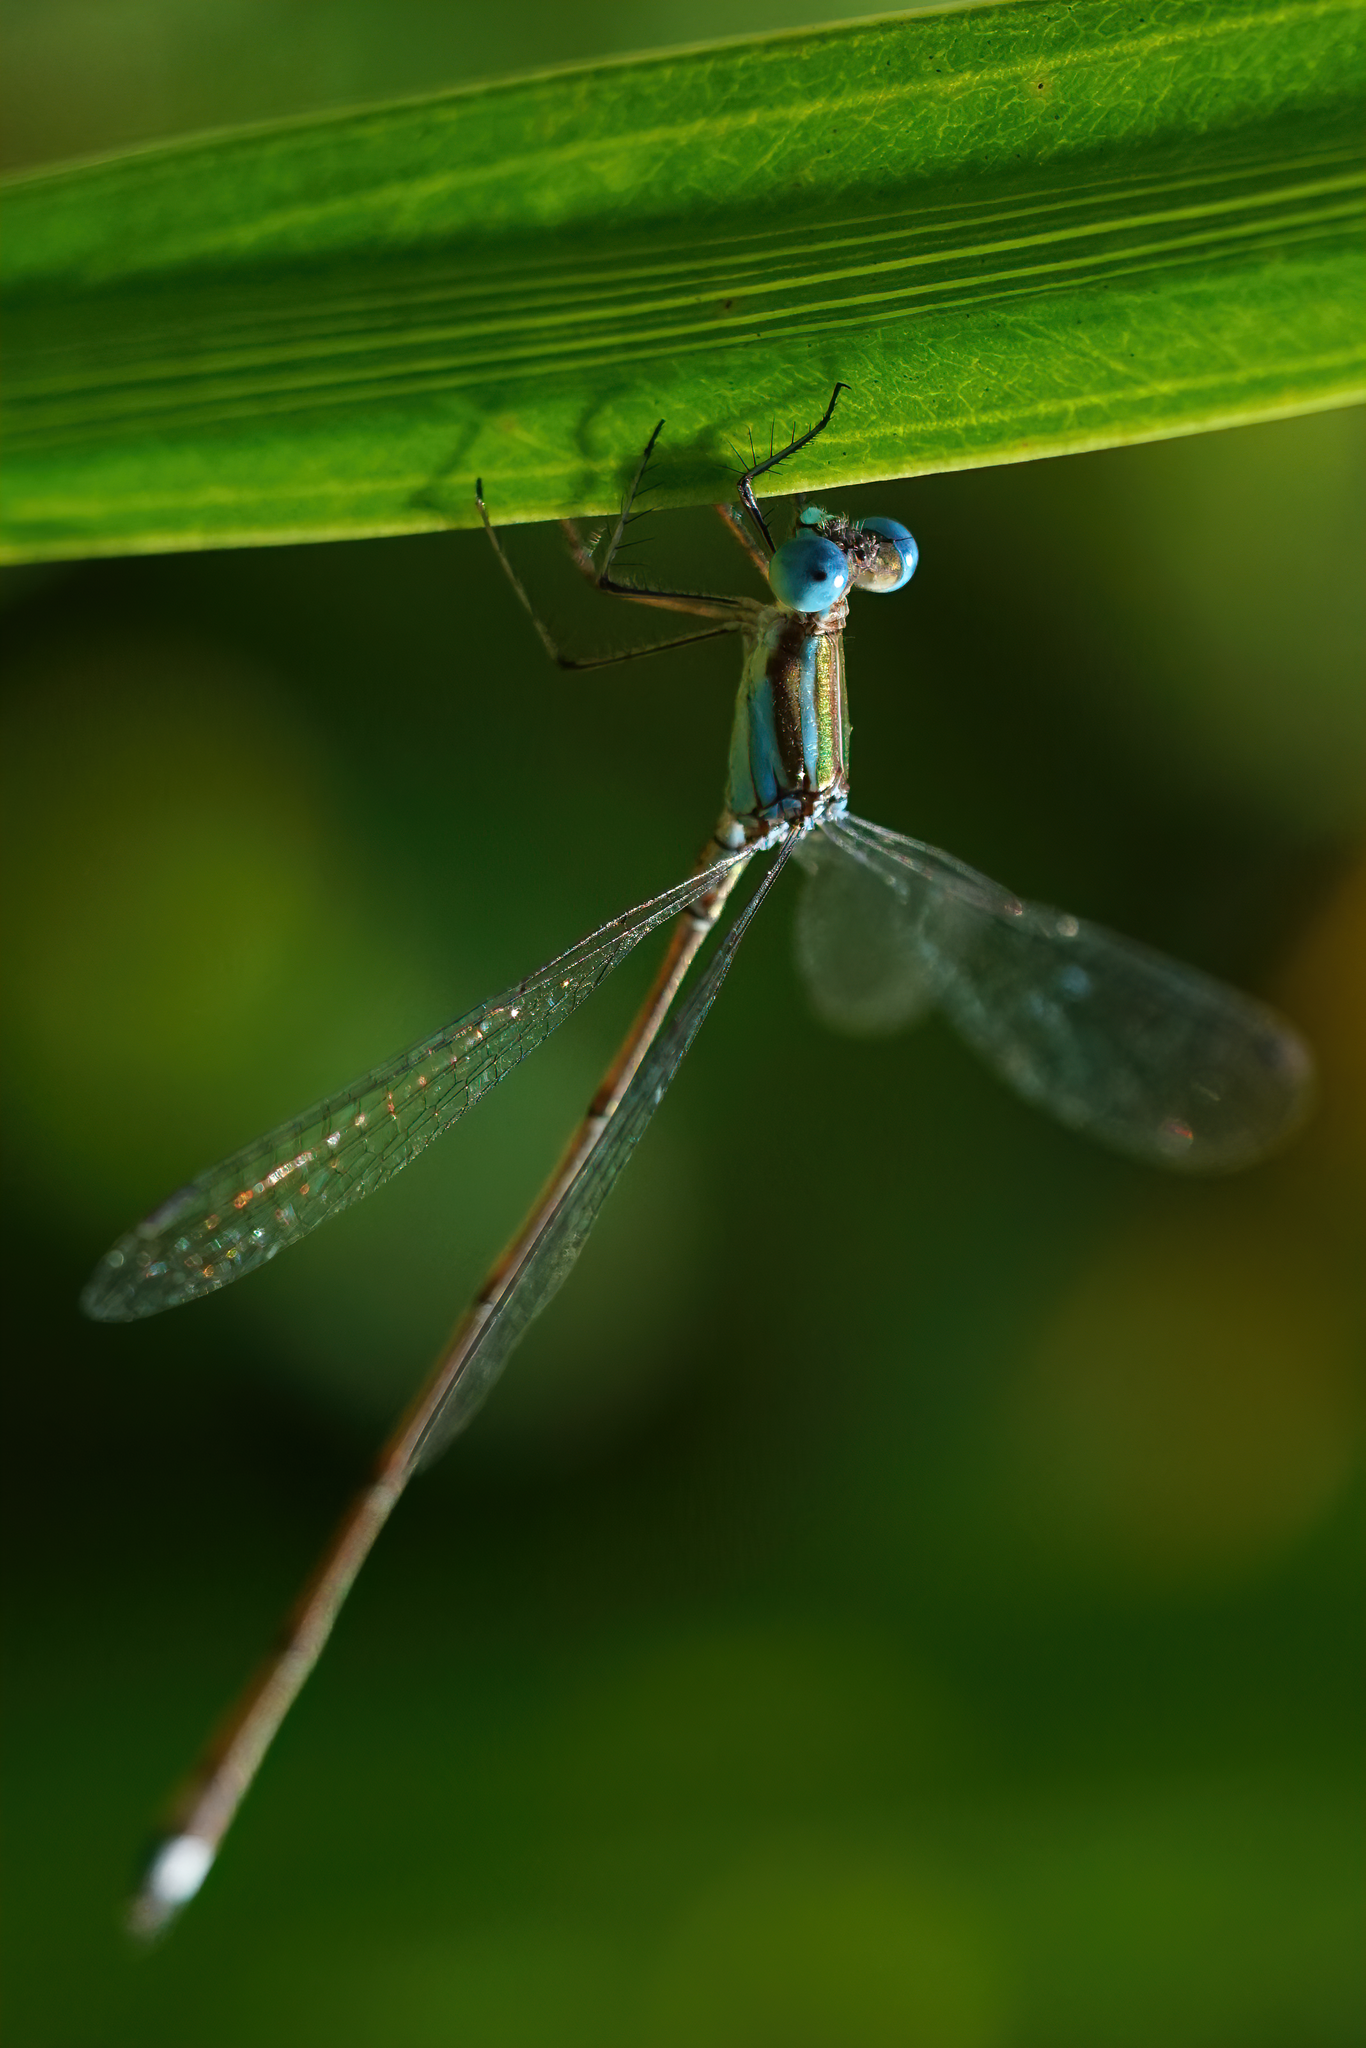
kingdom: Animalia
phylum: Arthropoda
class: Insecta
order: Odonata
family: Lestidae
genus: Lestes
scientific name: Lestes tenuatus
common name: Blue-striped spreadwing
